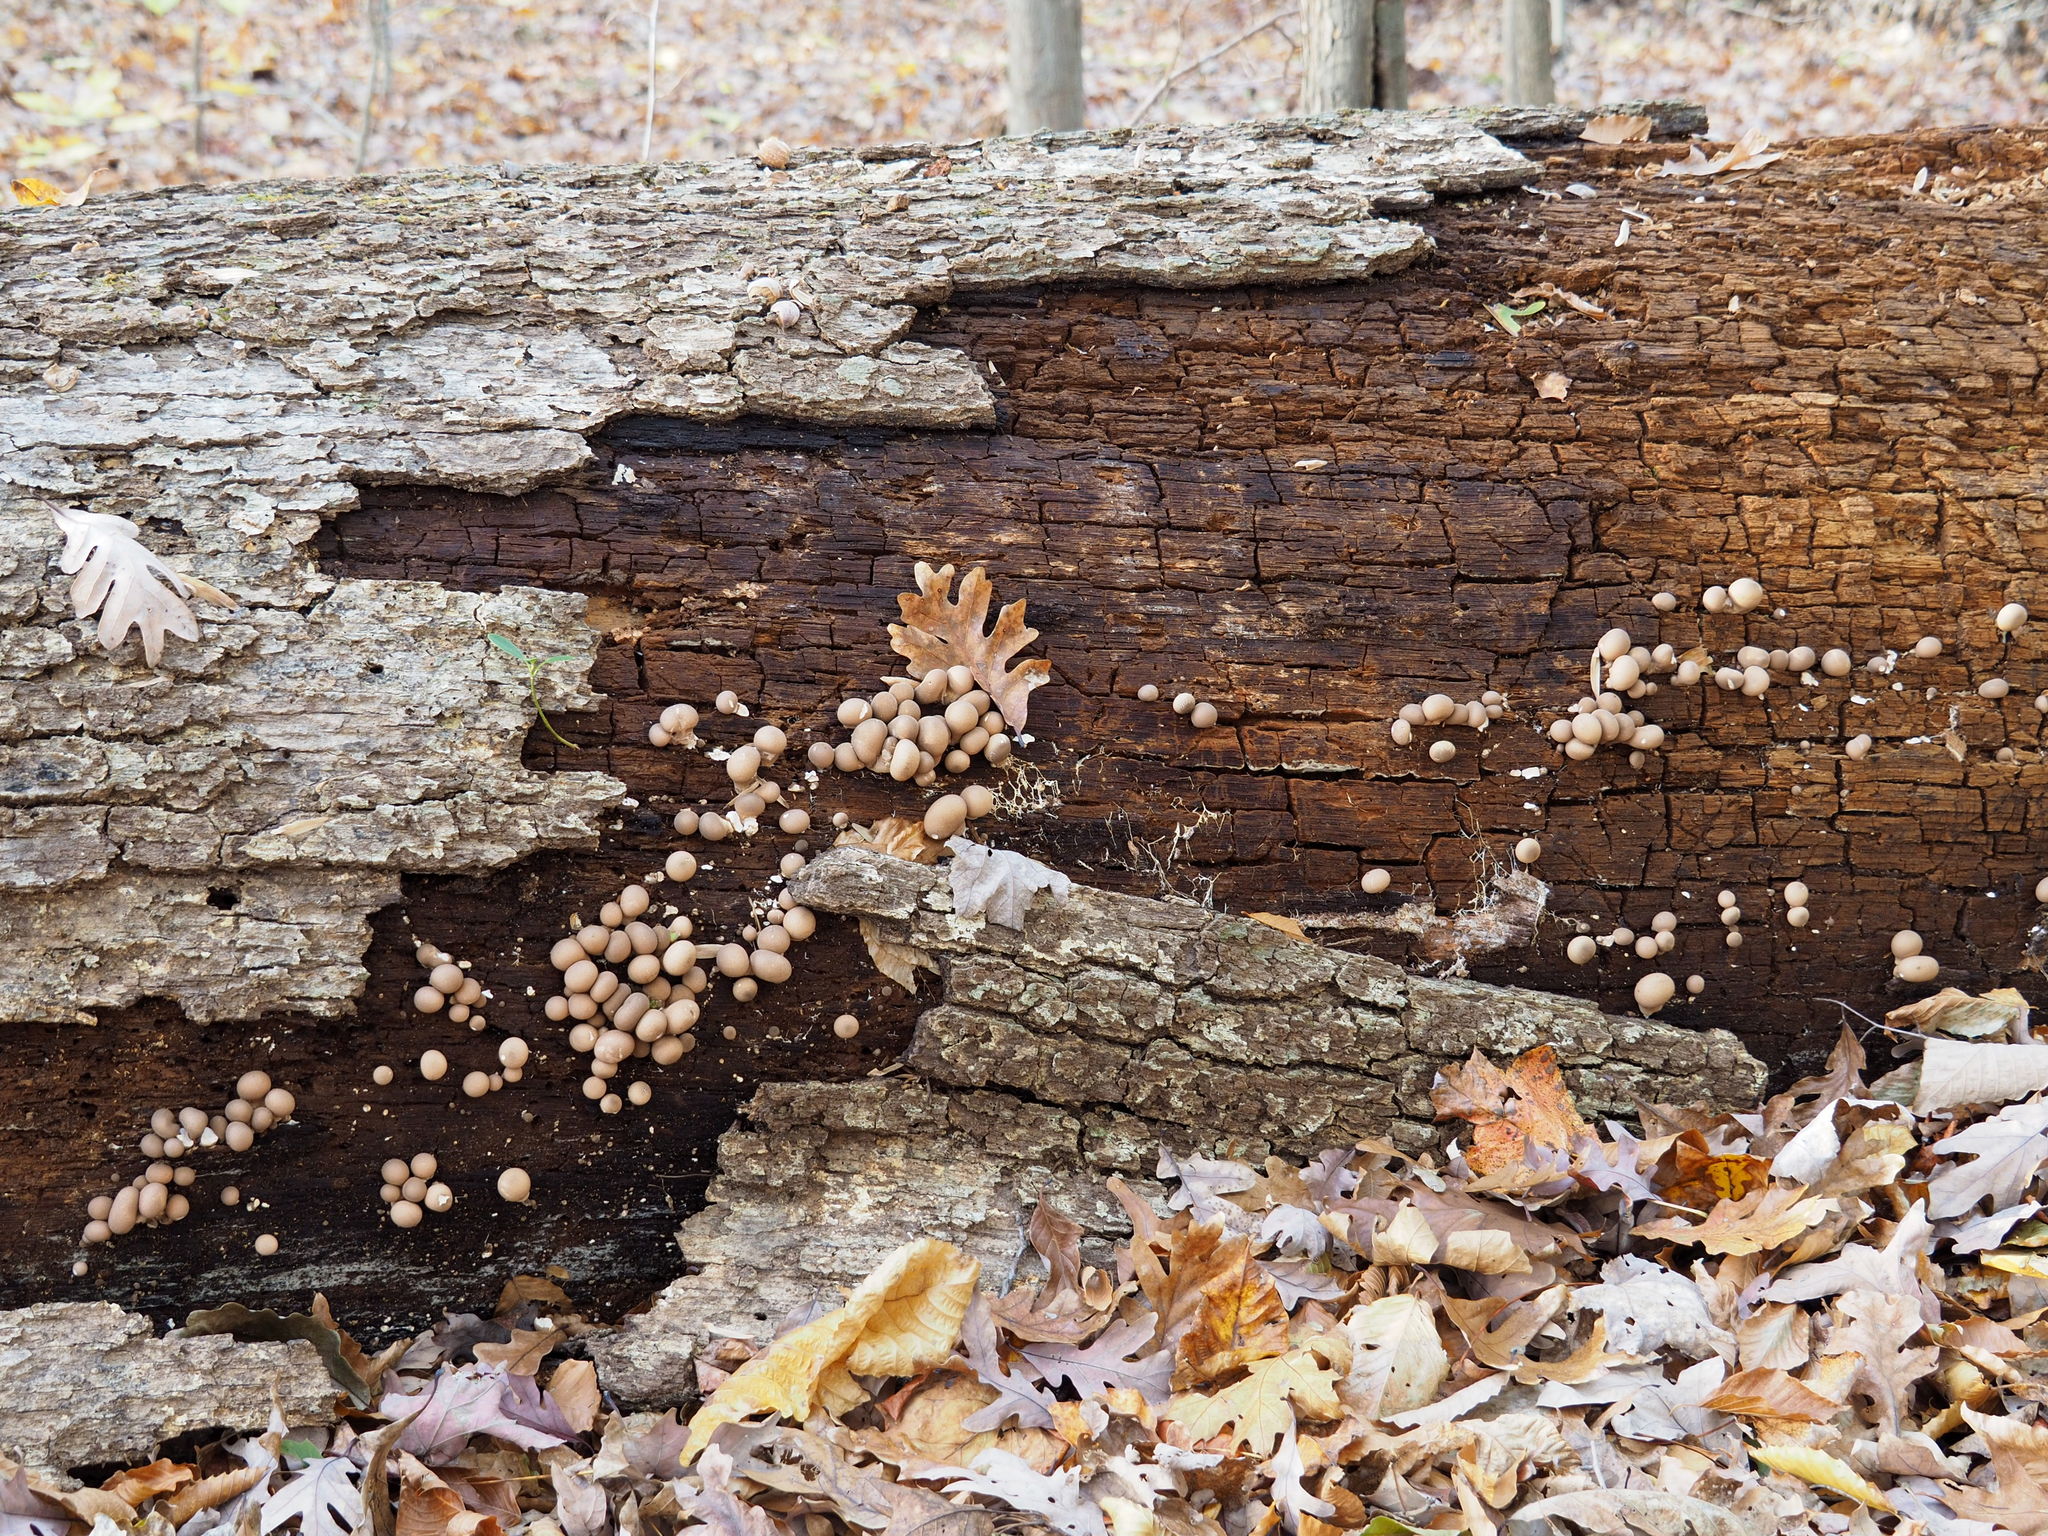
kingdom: Fungi
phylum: Basidiomycota
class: Agaricomycetes
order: Agaricales
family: Lycoperdaceae
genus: Apioperdon
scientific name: Apioperdon pyriforme
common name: Pear-shaped puffball
